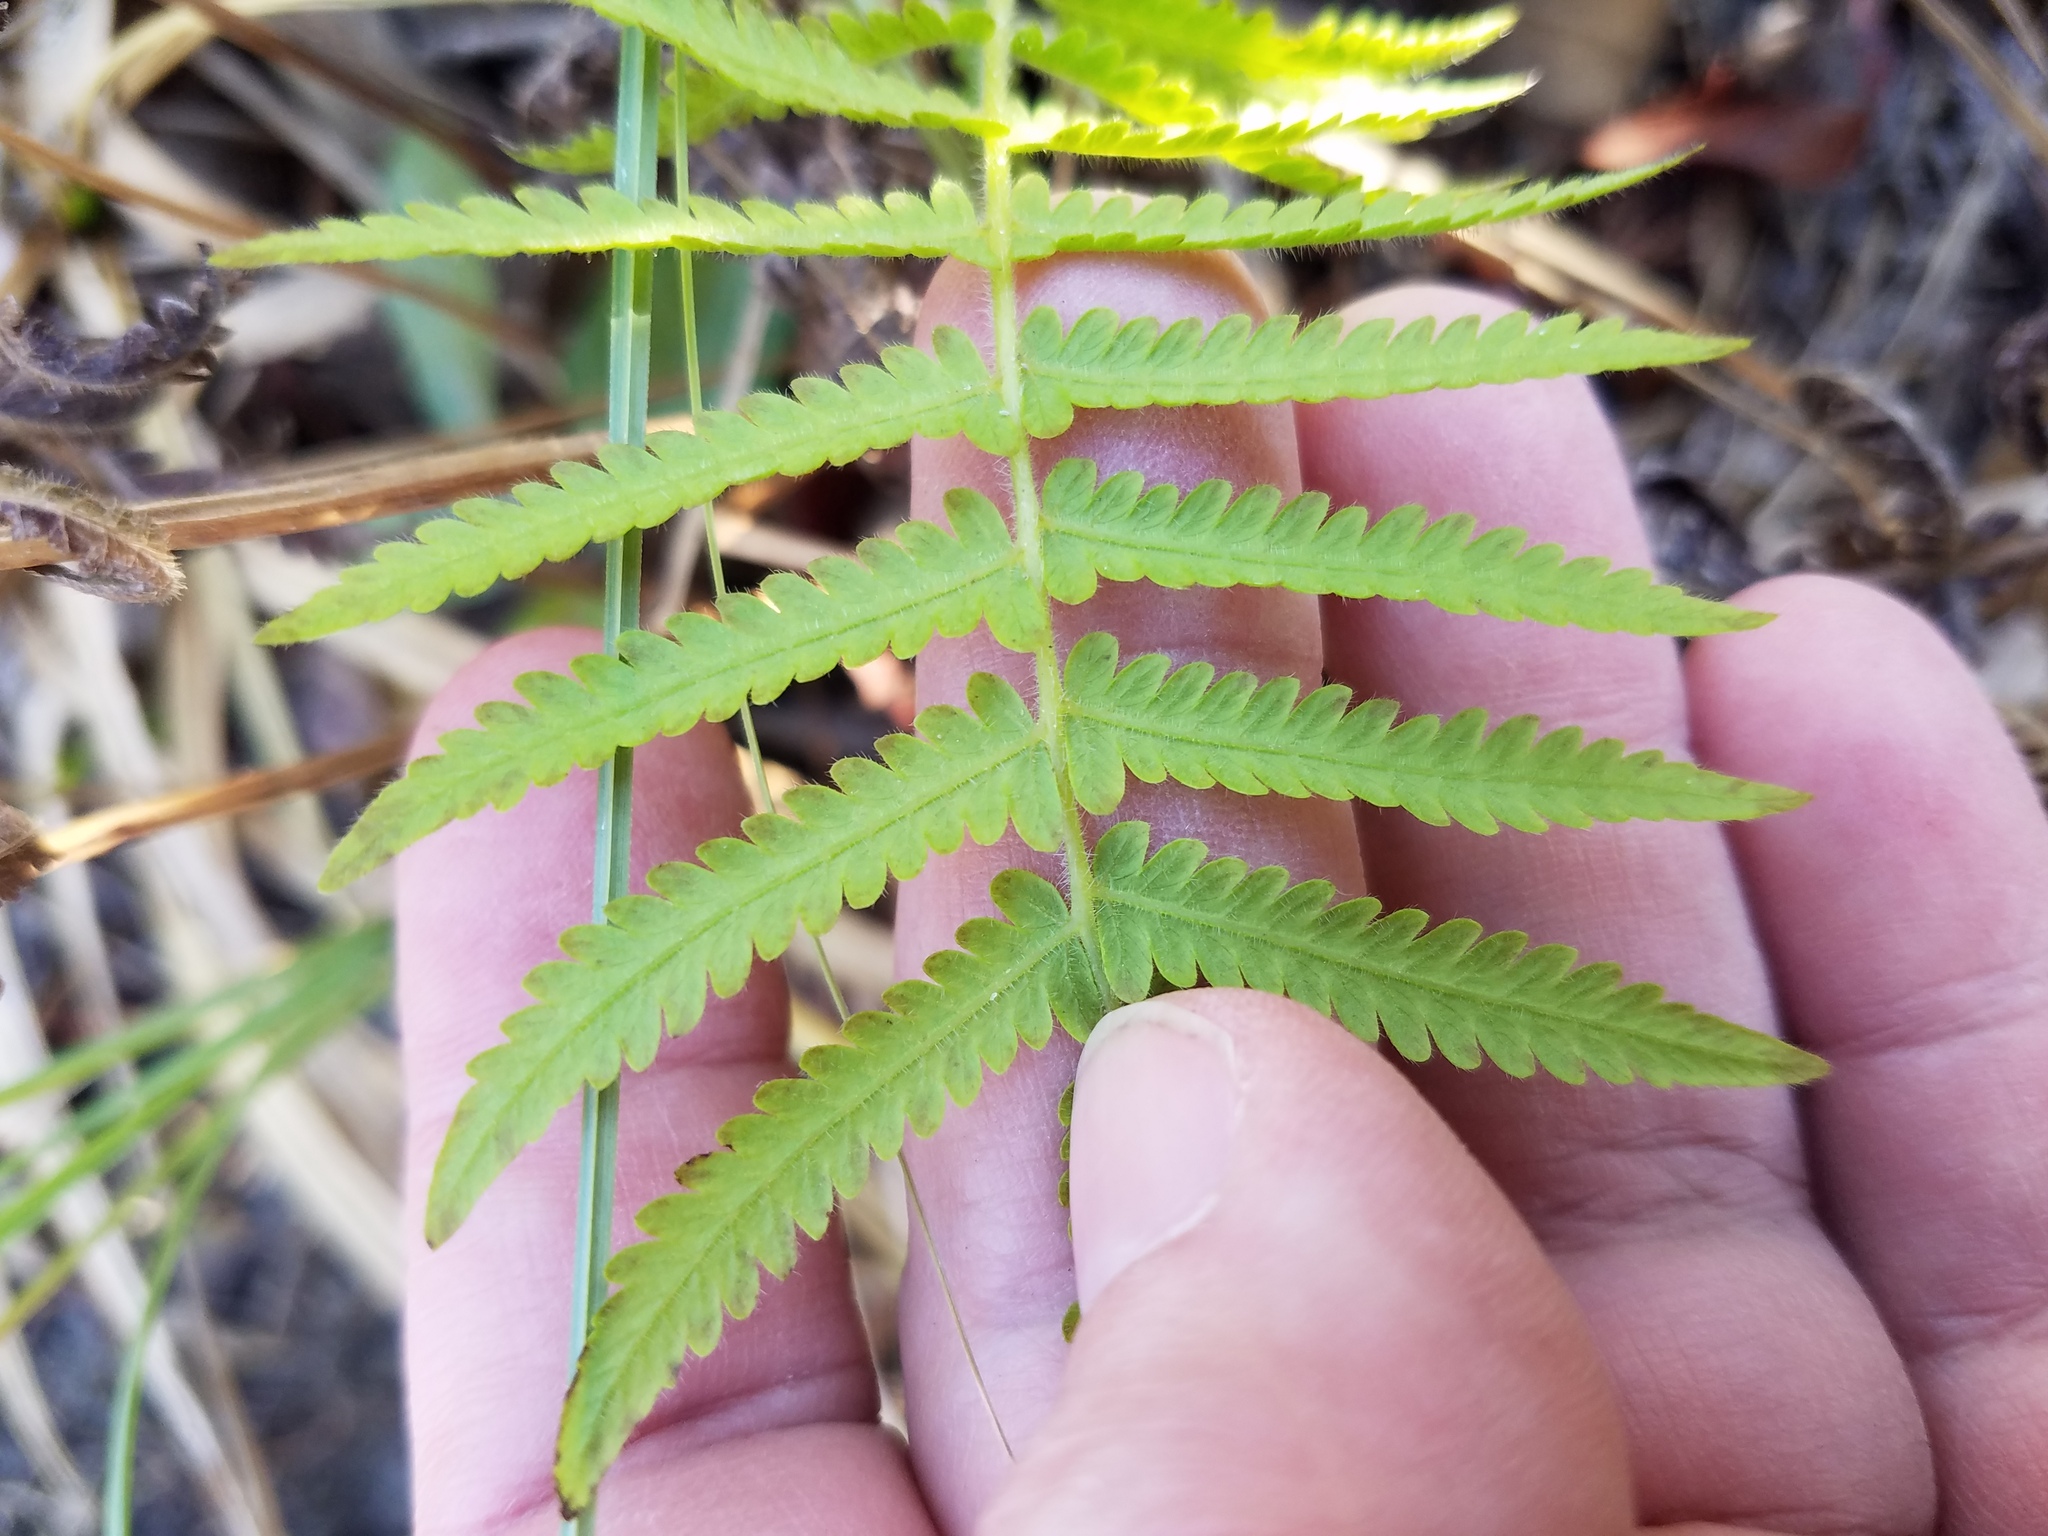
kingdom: Plantae
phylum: Tracheophyta
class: Polypodiopsida
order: Polypodiales
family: Thelypteridaceae
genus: Pelazoneuron
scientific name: Pelazoneuron kunthii
